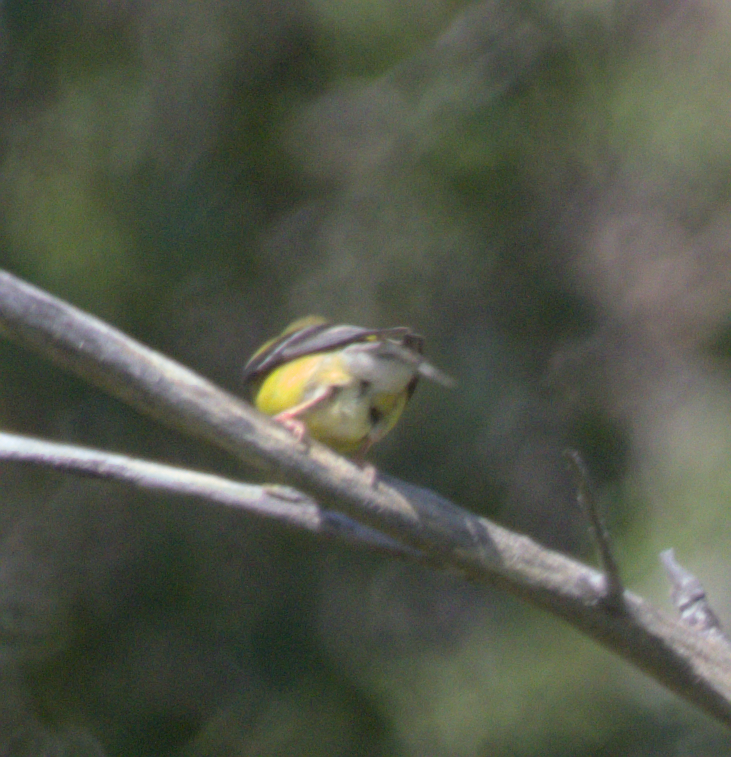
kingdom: Animalia
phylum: Chordata
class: Aves
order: Passeriformes
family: Fringillidae
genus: Spinus
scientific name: Spinus tristis
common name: American goldfinch
